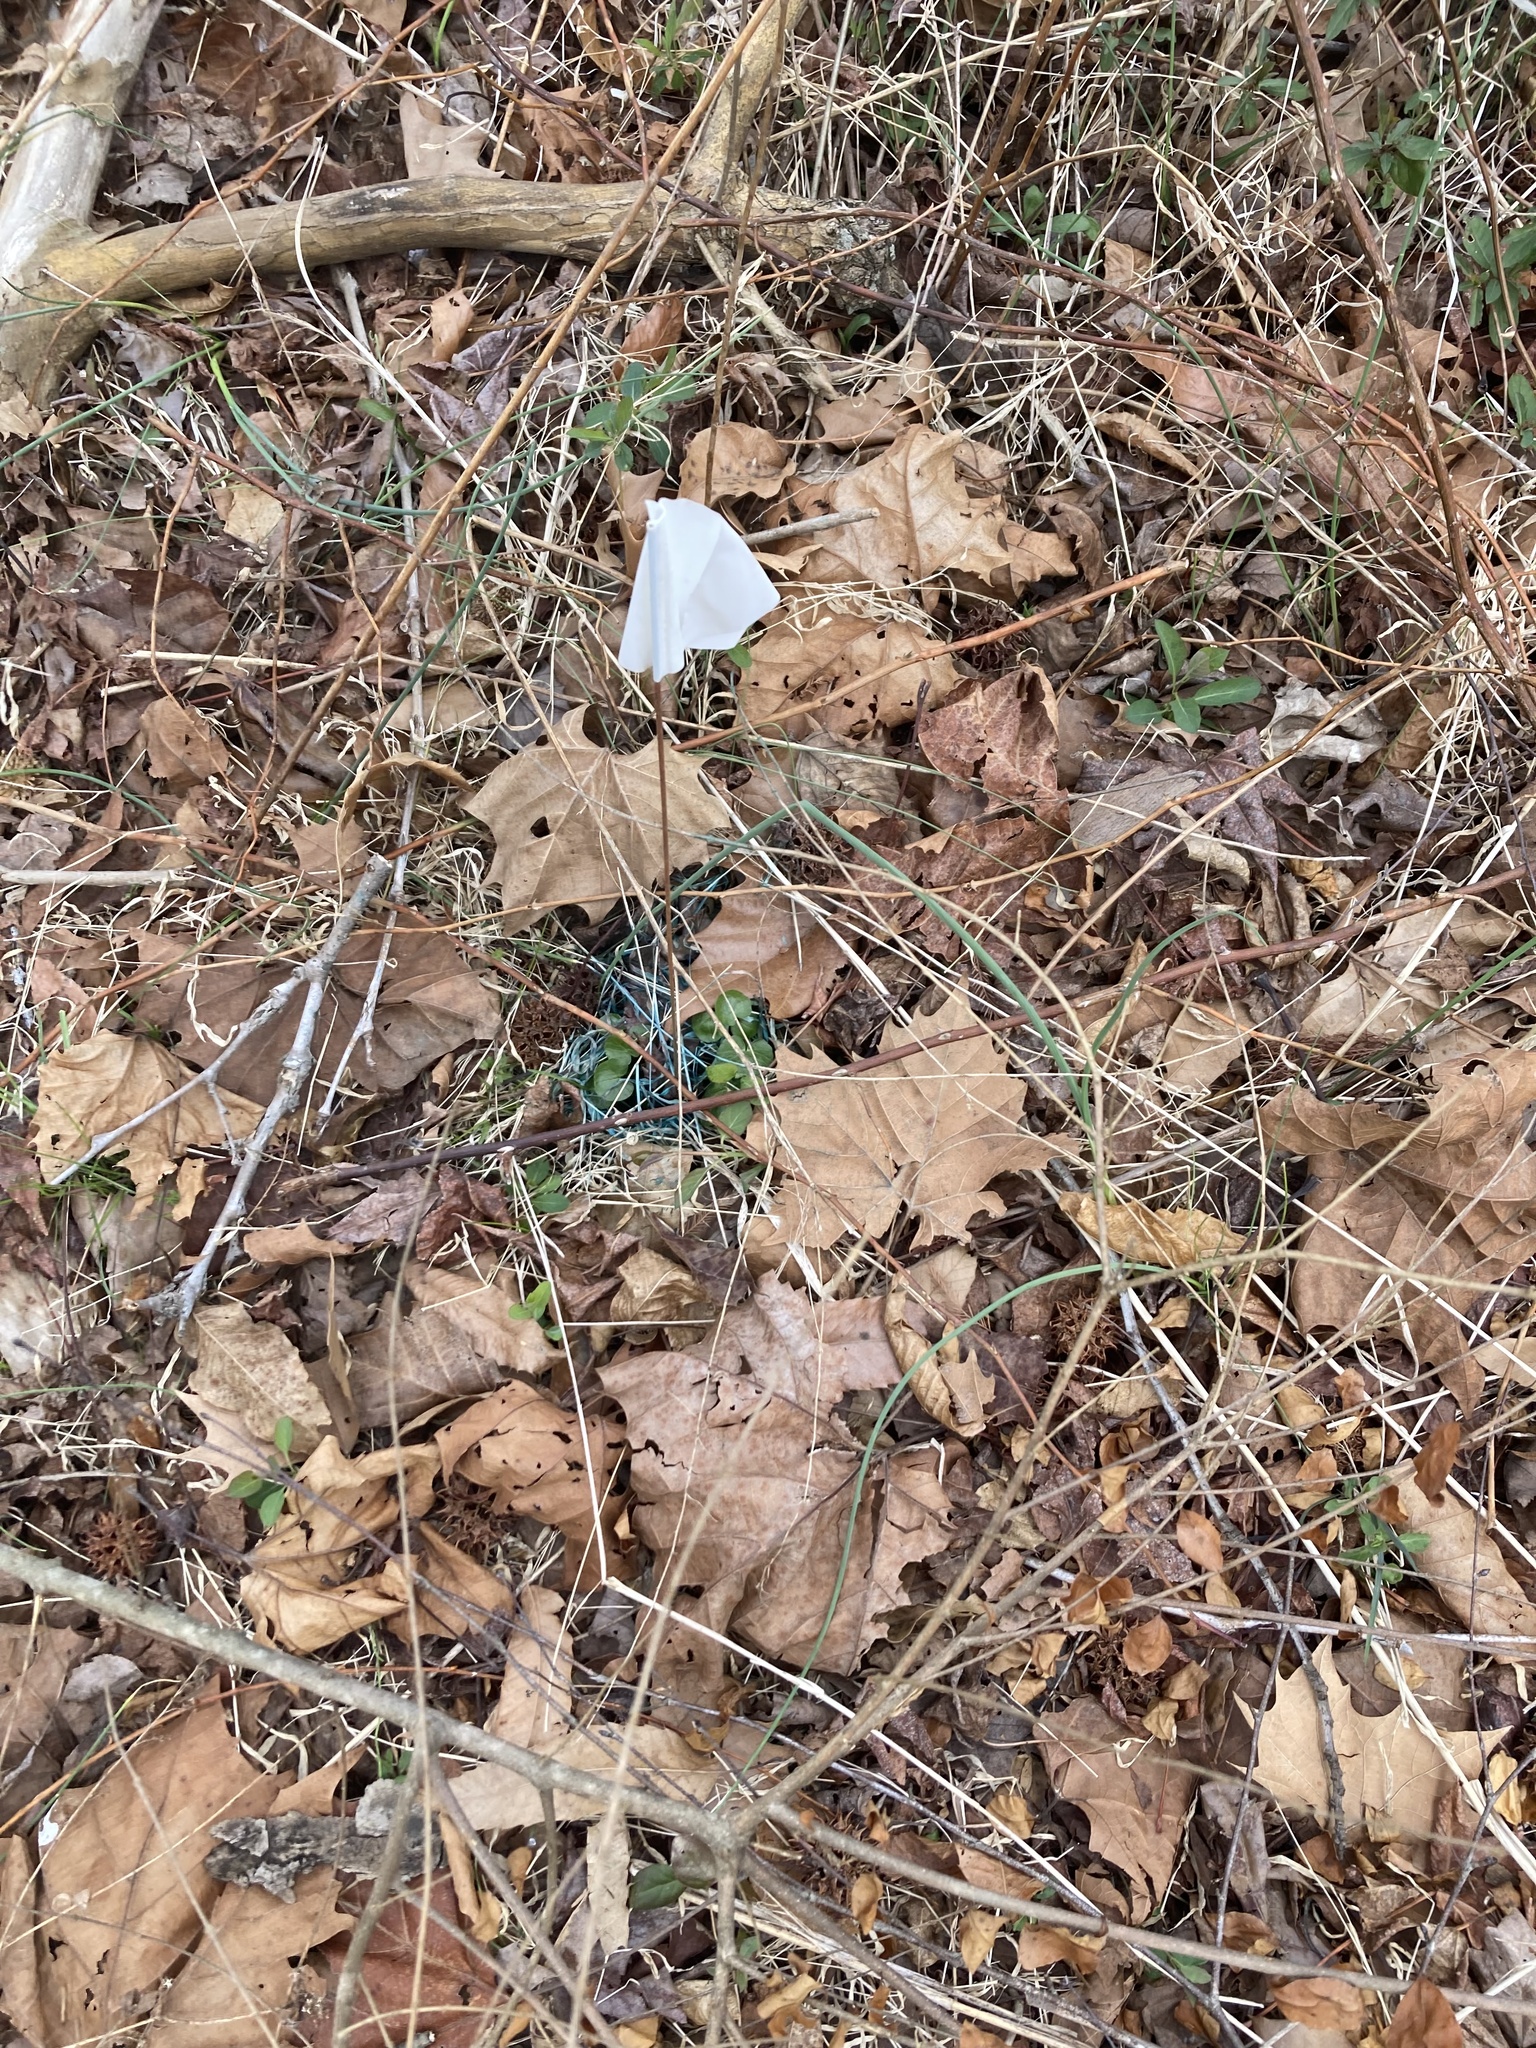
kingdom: Plantae
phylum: Tracheophyta
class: Magnoliopsida
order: Ranunculales
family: Ranunculaceae
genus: Ficaria
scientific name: Ficaria verna
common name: Lesser celandine
